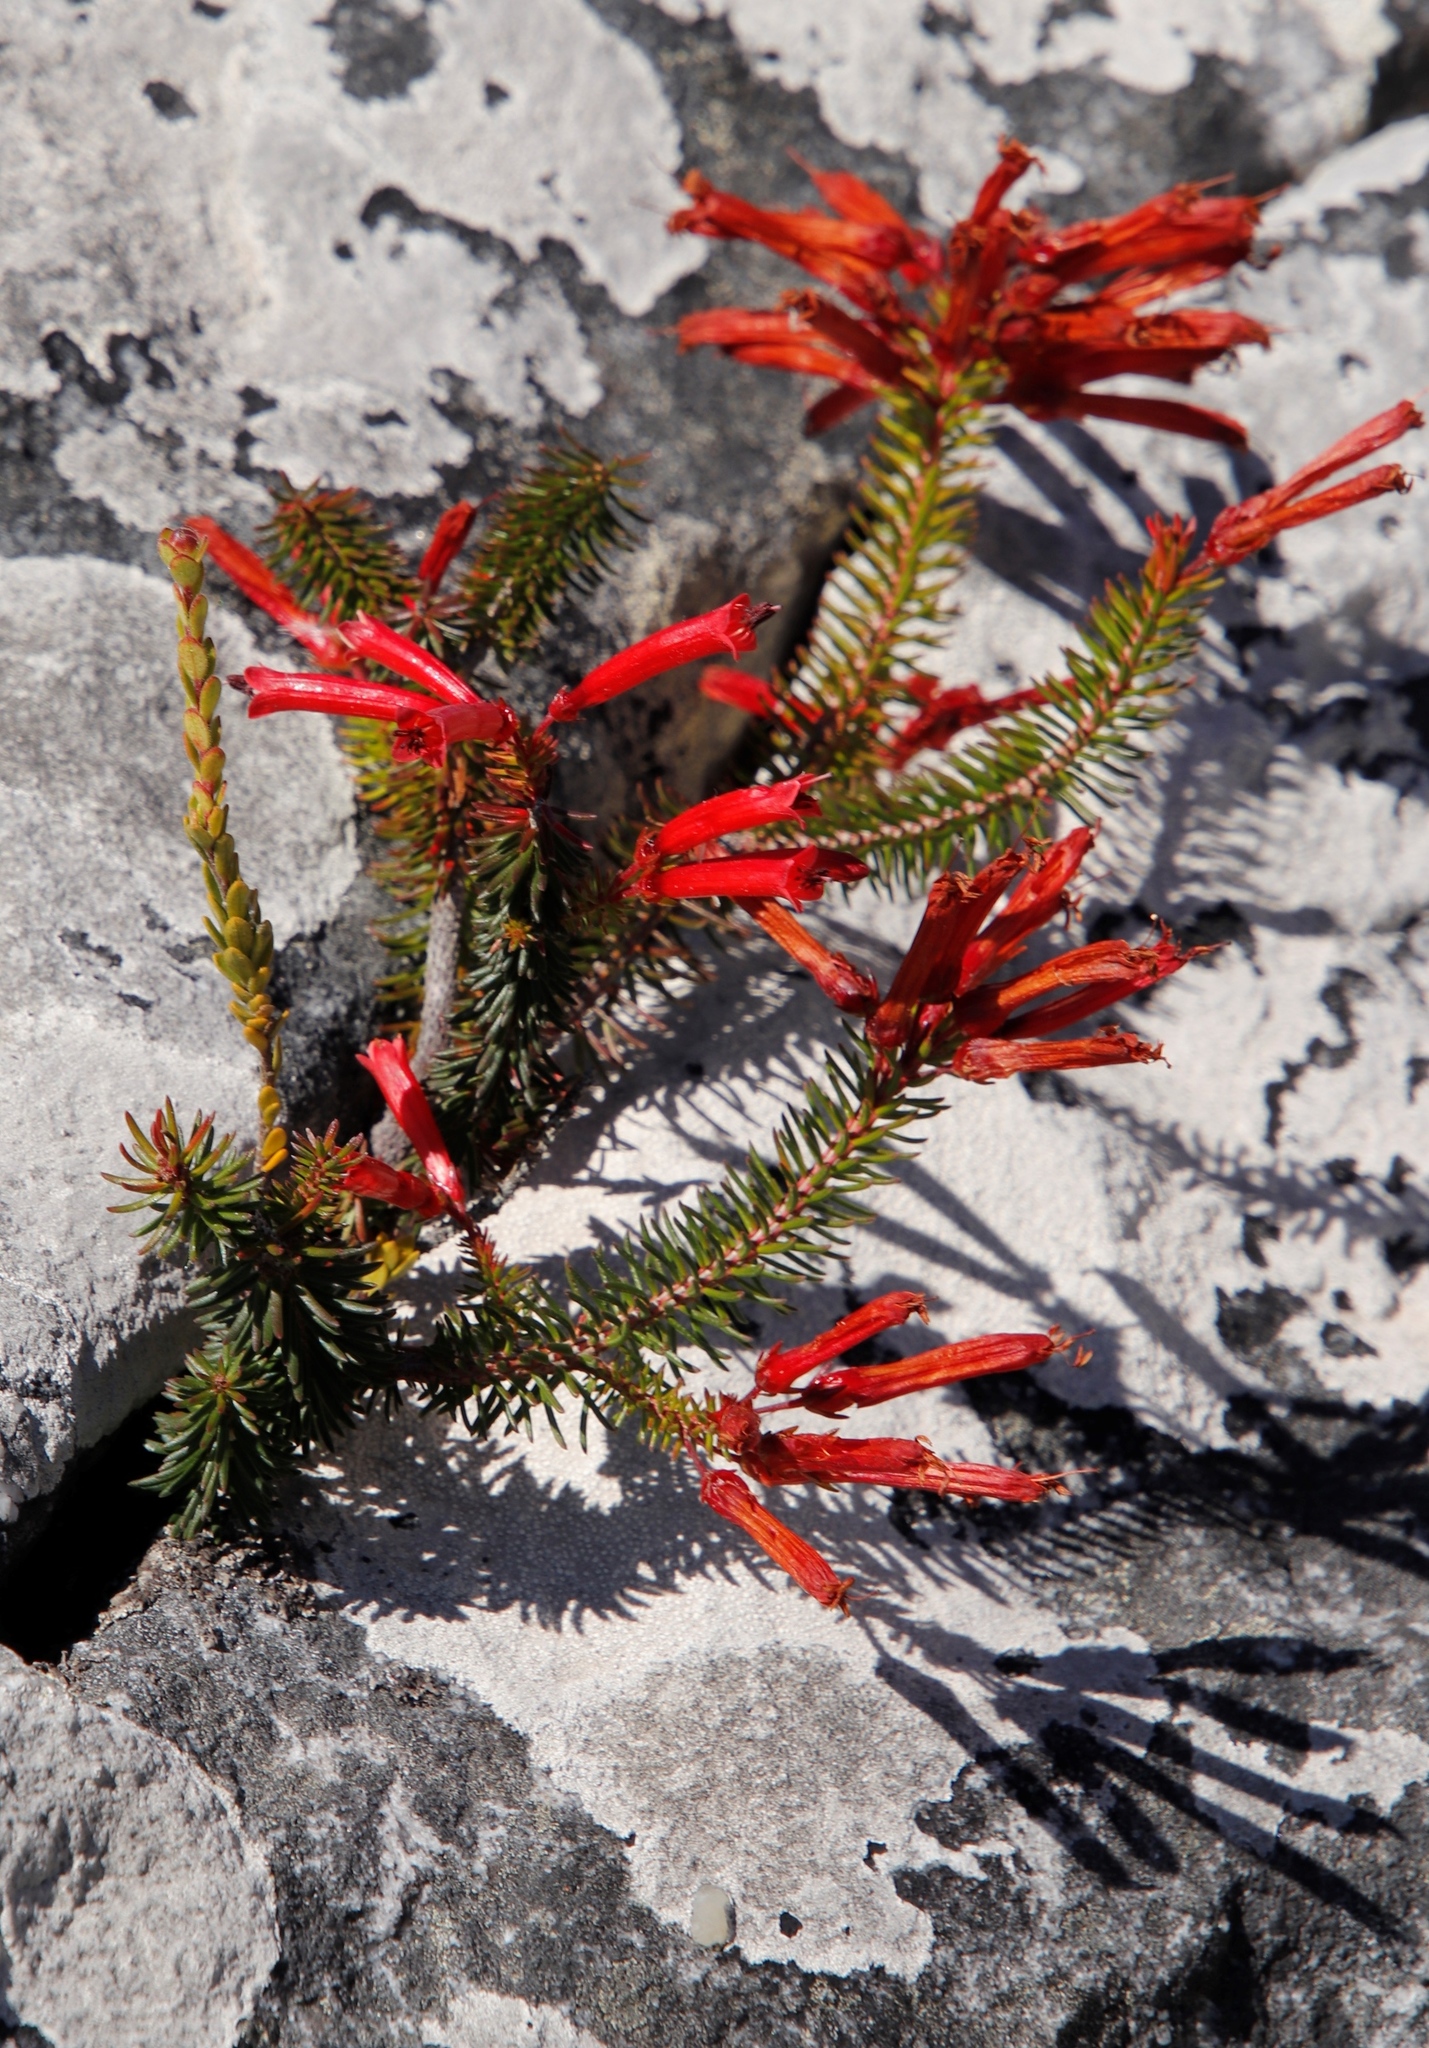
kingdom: Plantae
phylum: Tracheophyta
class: Magnoliopsida
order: Ericales
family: Ericaceae
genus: Erica
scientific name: Erica nevillei
